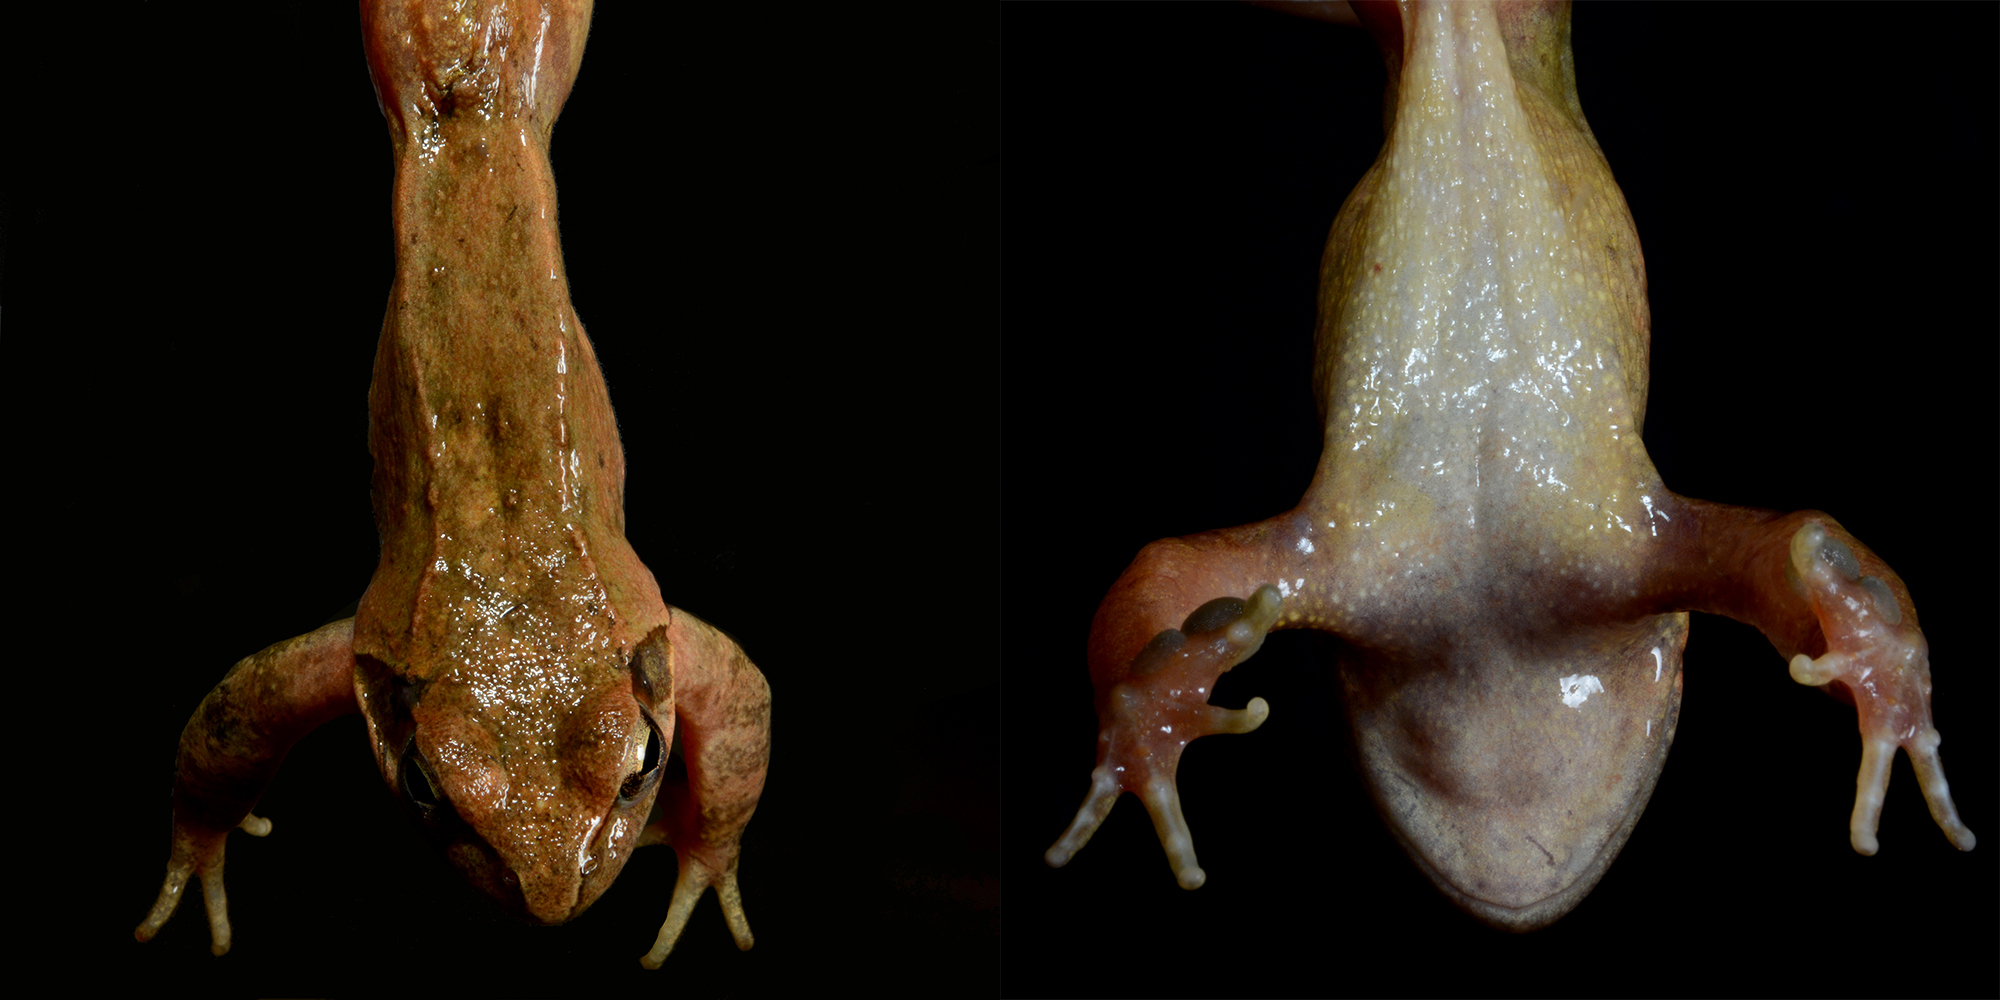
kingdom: Animalia
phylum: Chordata
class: Amphibia
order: Anura
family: Ranidae
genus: Rana
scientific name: Rana huanrenensis
